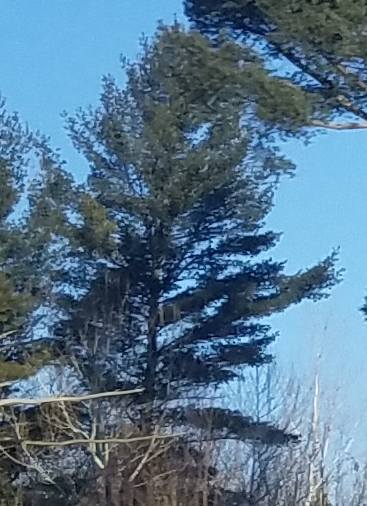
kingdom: Plantae
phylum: Tracheophyta
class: Pinopsida
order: Pinales
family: Pinaceae
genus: Pinus
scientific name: Pinus strobus
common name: Weymouth pine
